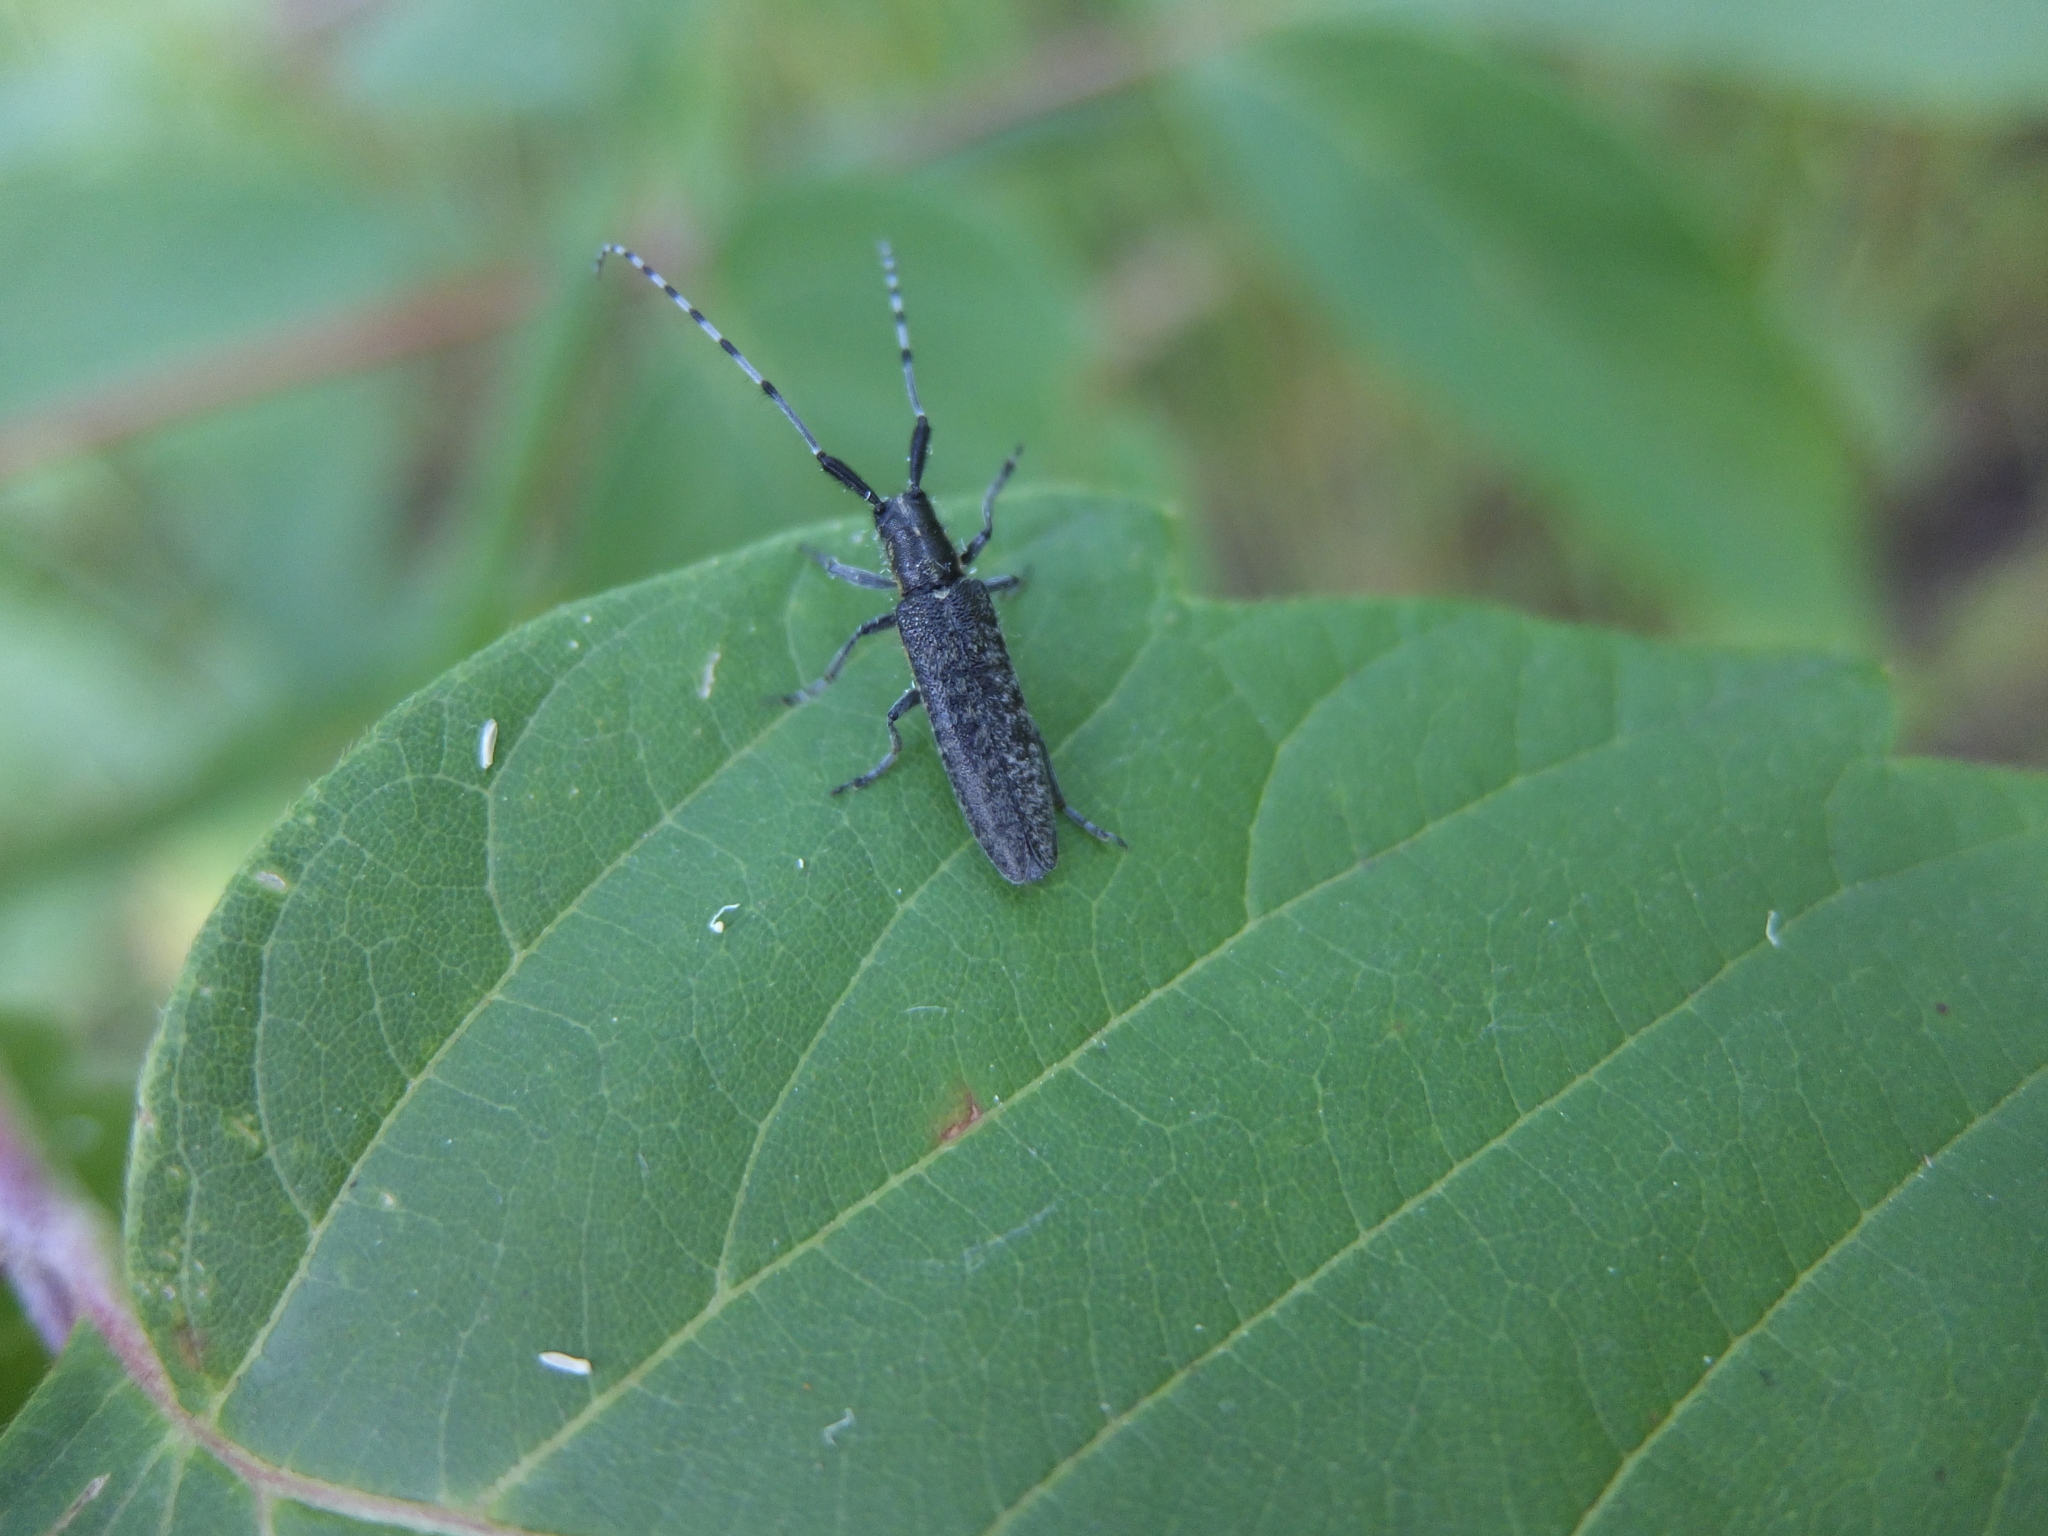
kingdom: Animalia
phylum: Arthropoda
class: Insecta
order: Coleoptera
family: Cerambycidae
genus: Agapanthia
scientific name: Agapanthia villosoviridescens
